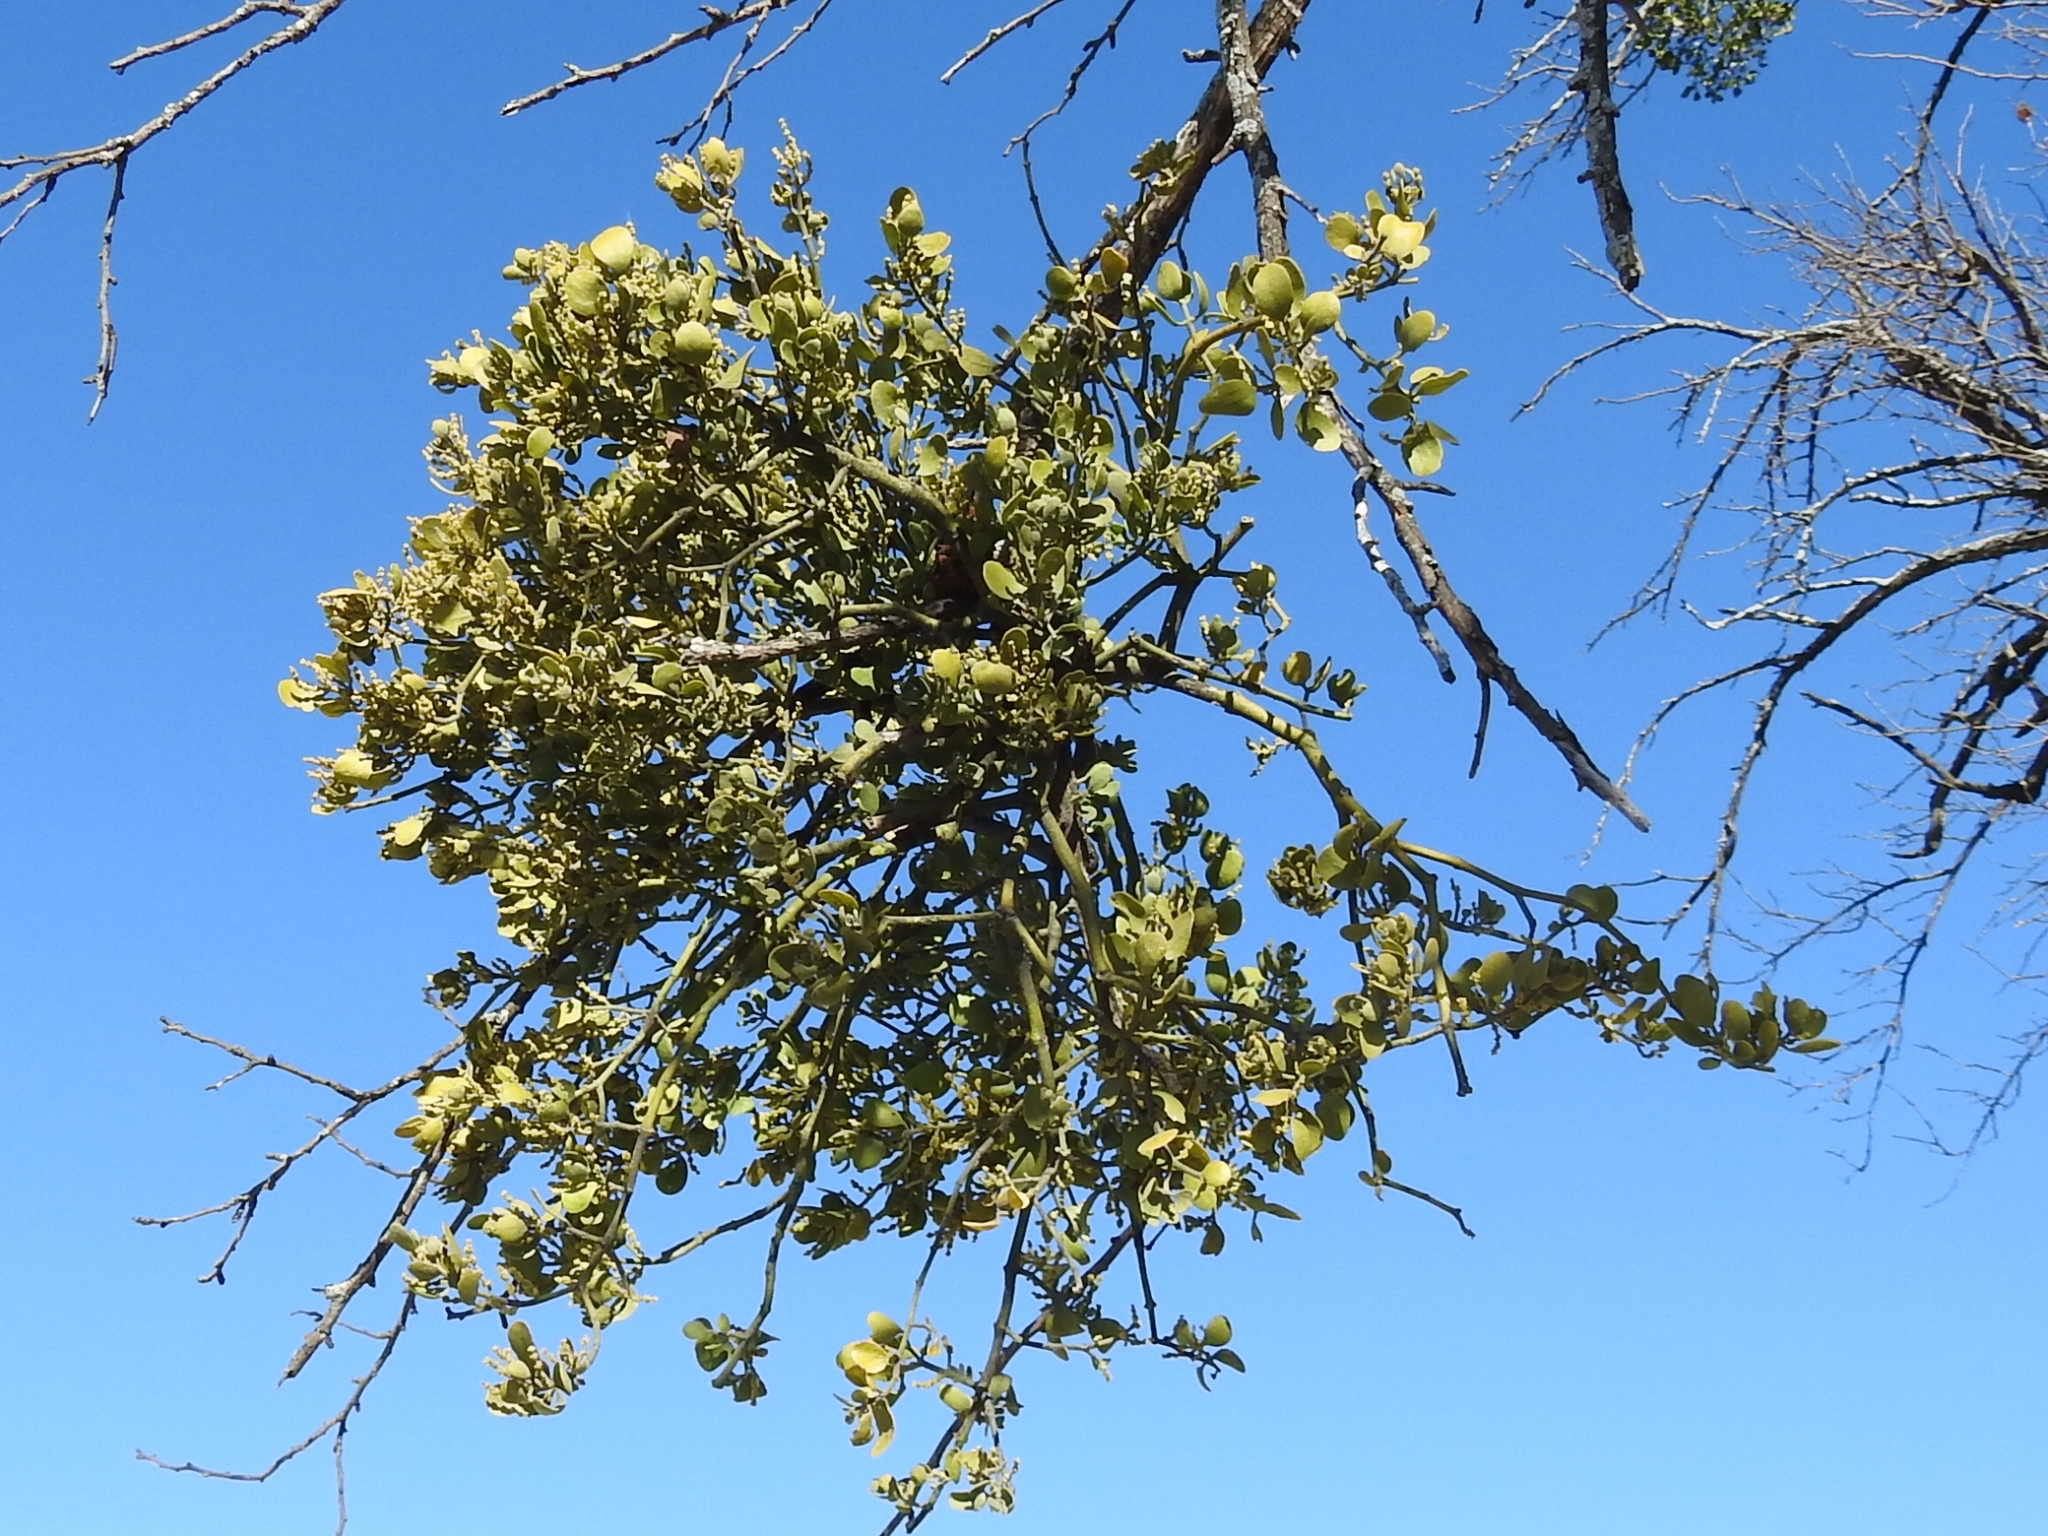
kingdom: Plantae
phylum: Tracheophyta
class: Magnoliopsida
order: Santalales
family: Viscaceae
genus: Phoradendron
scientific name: Phoradendron leucarpum
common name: Pacific mistletoe
